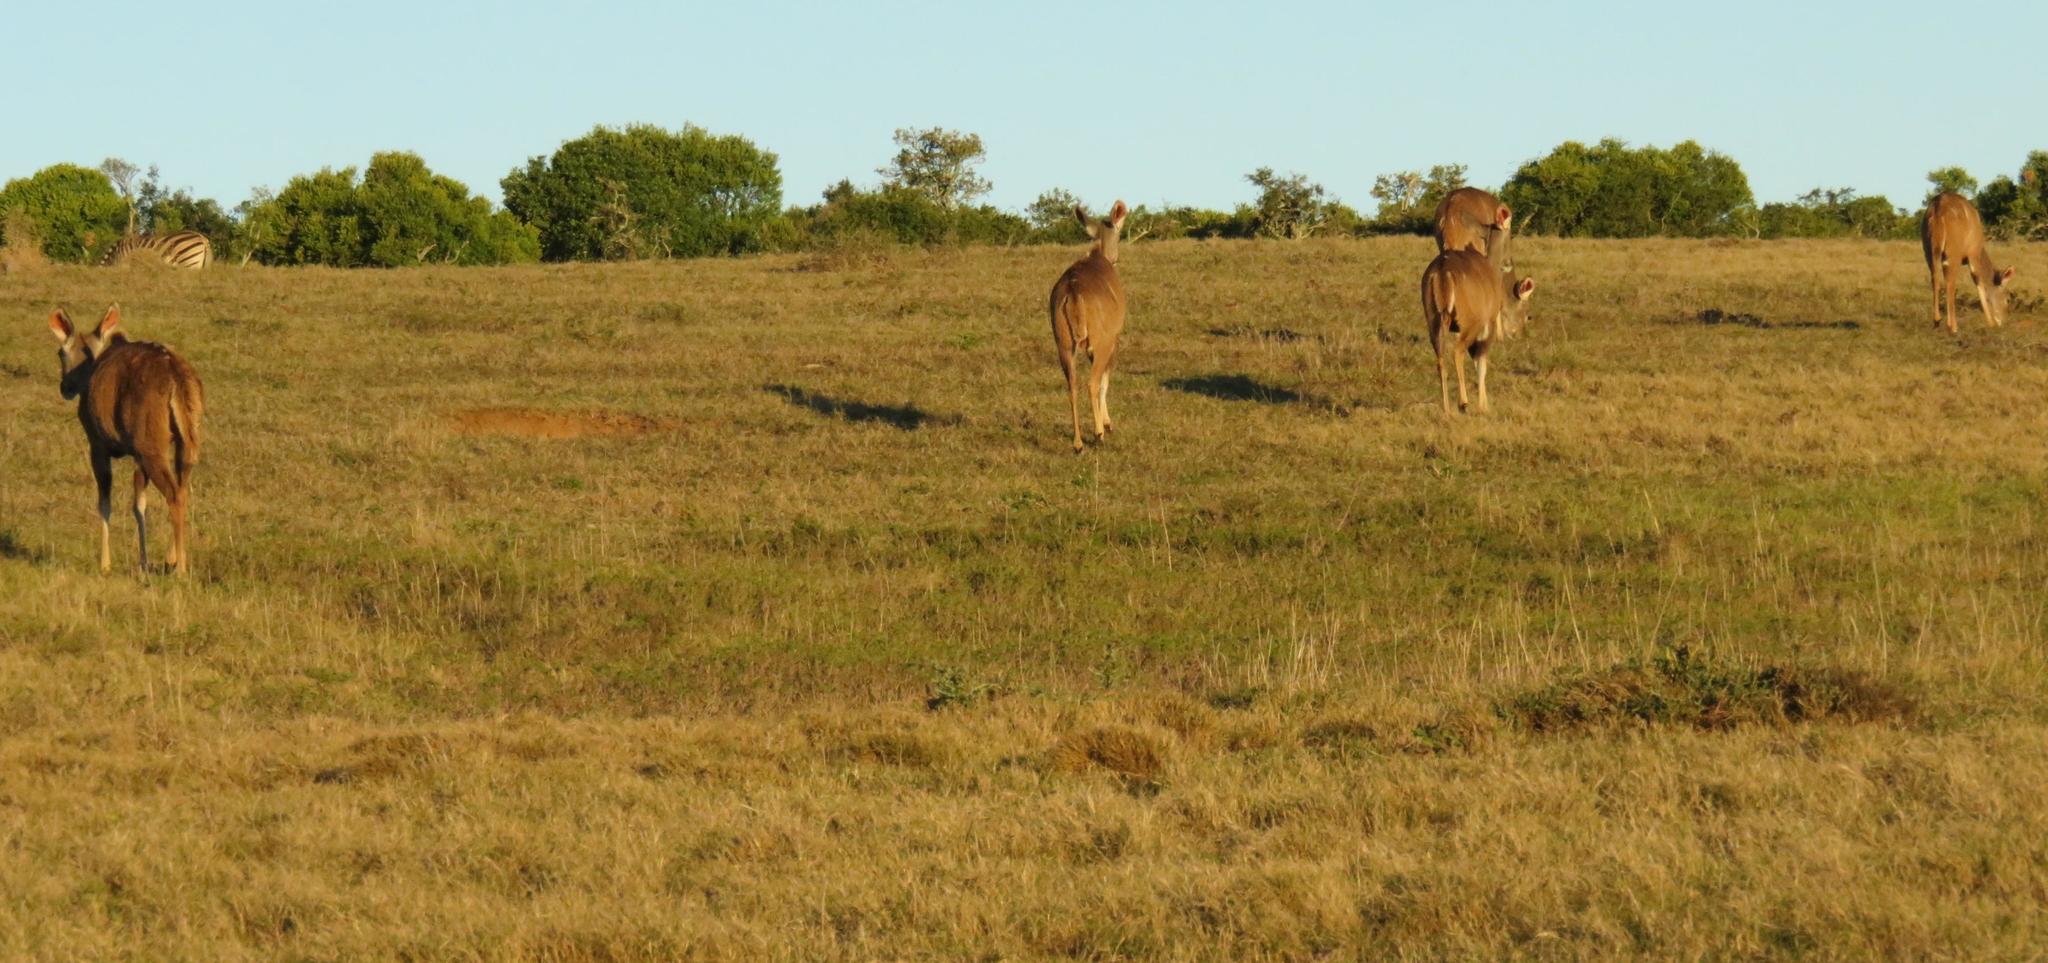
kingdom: Animalia
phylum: Chordata
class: Mammalia
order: Artiodactyla
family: Bovidae
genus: Tragelaphus
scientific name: Tragelaphus strepsiceros
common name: Greater kudu
